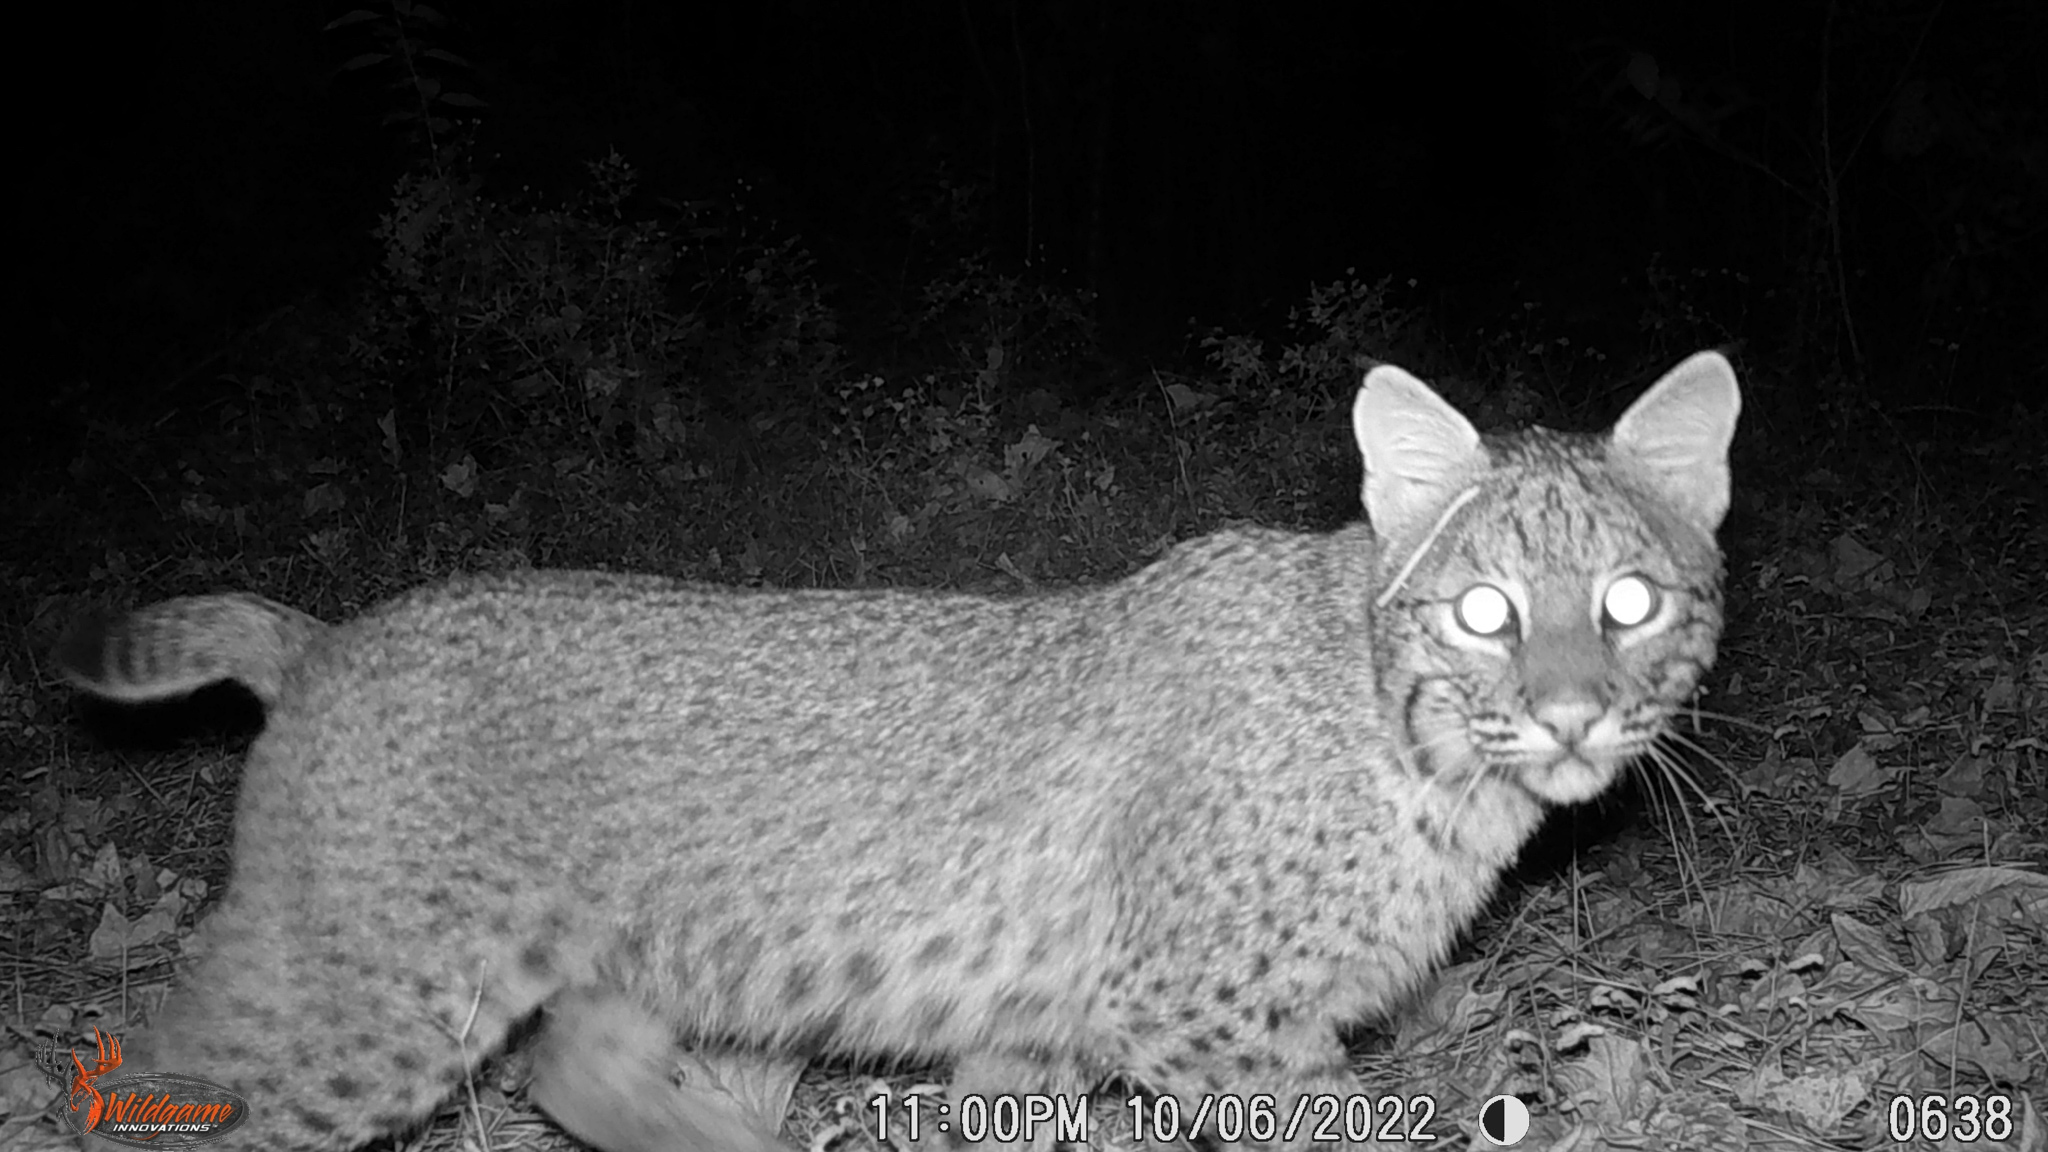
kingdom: Animalia
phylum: Chordata
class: Mammalia
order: Carnivora
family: Felidae
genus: Lynx
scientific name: Lynx rufus
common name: Bobcat
